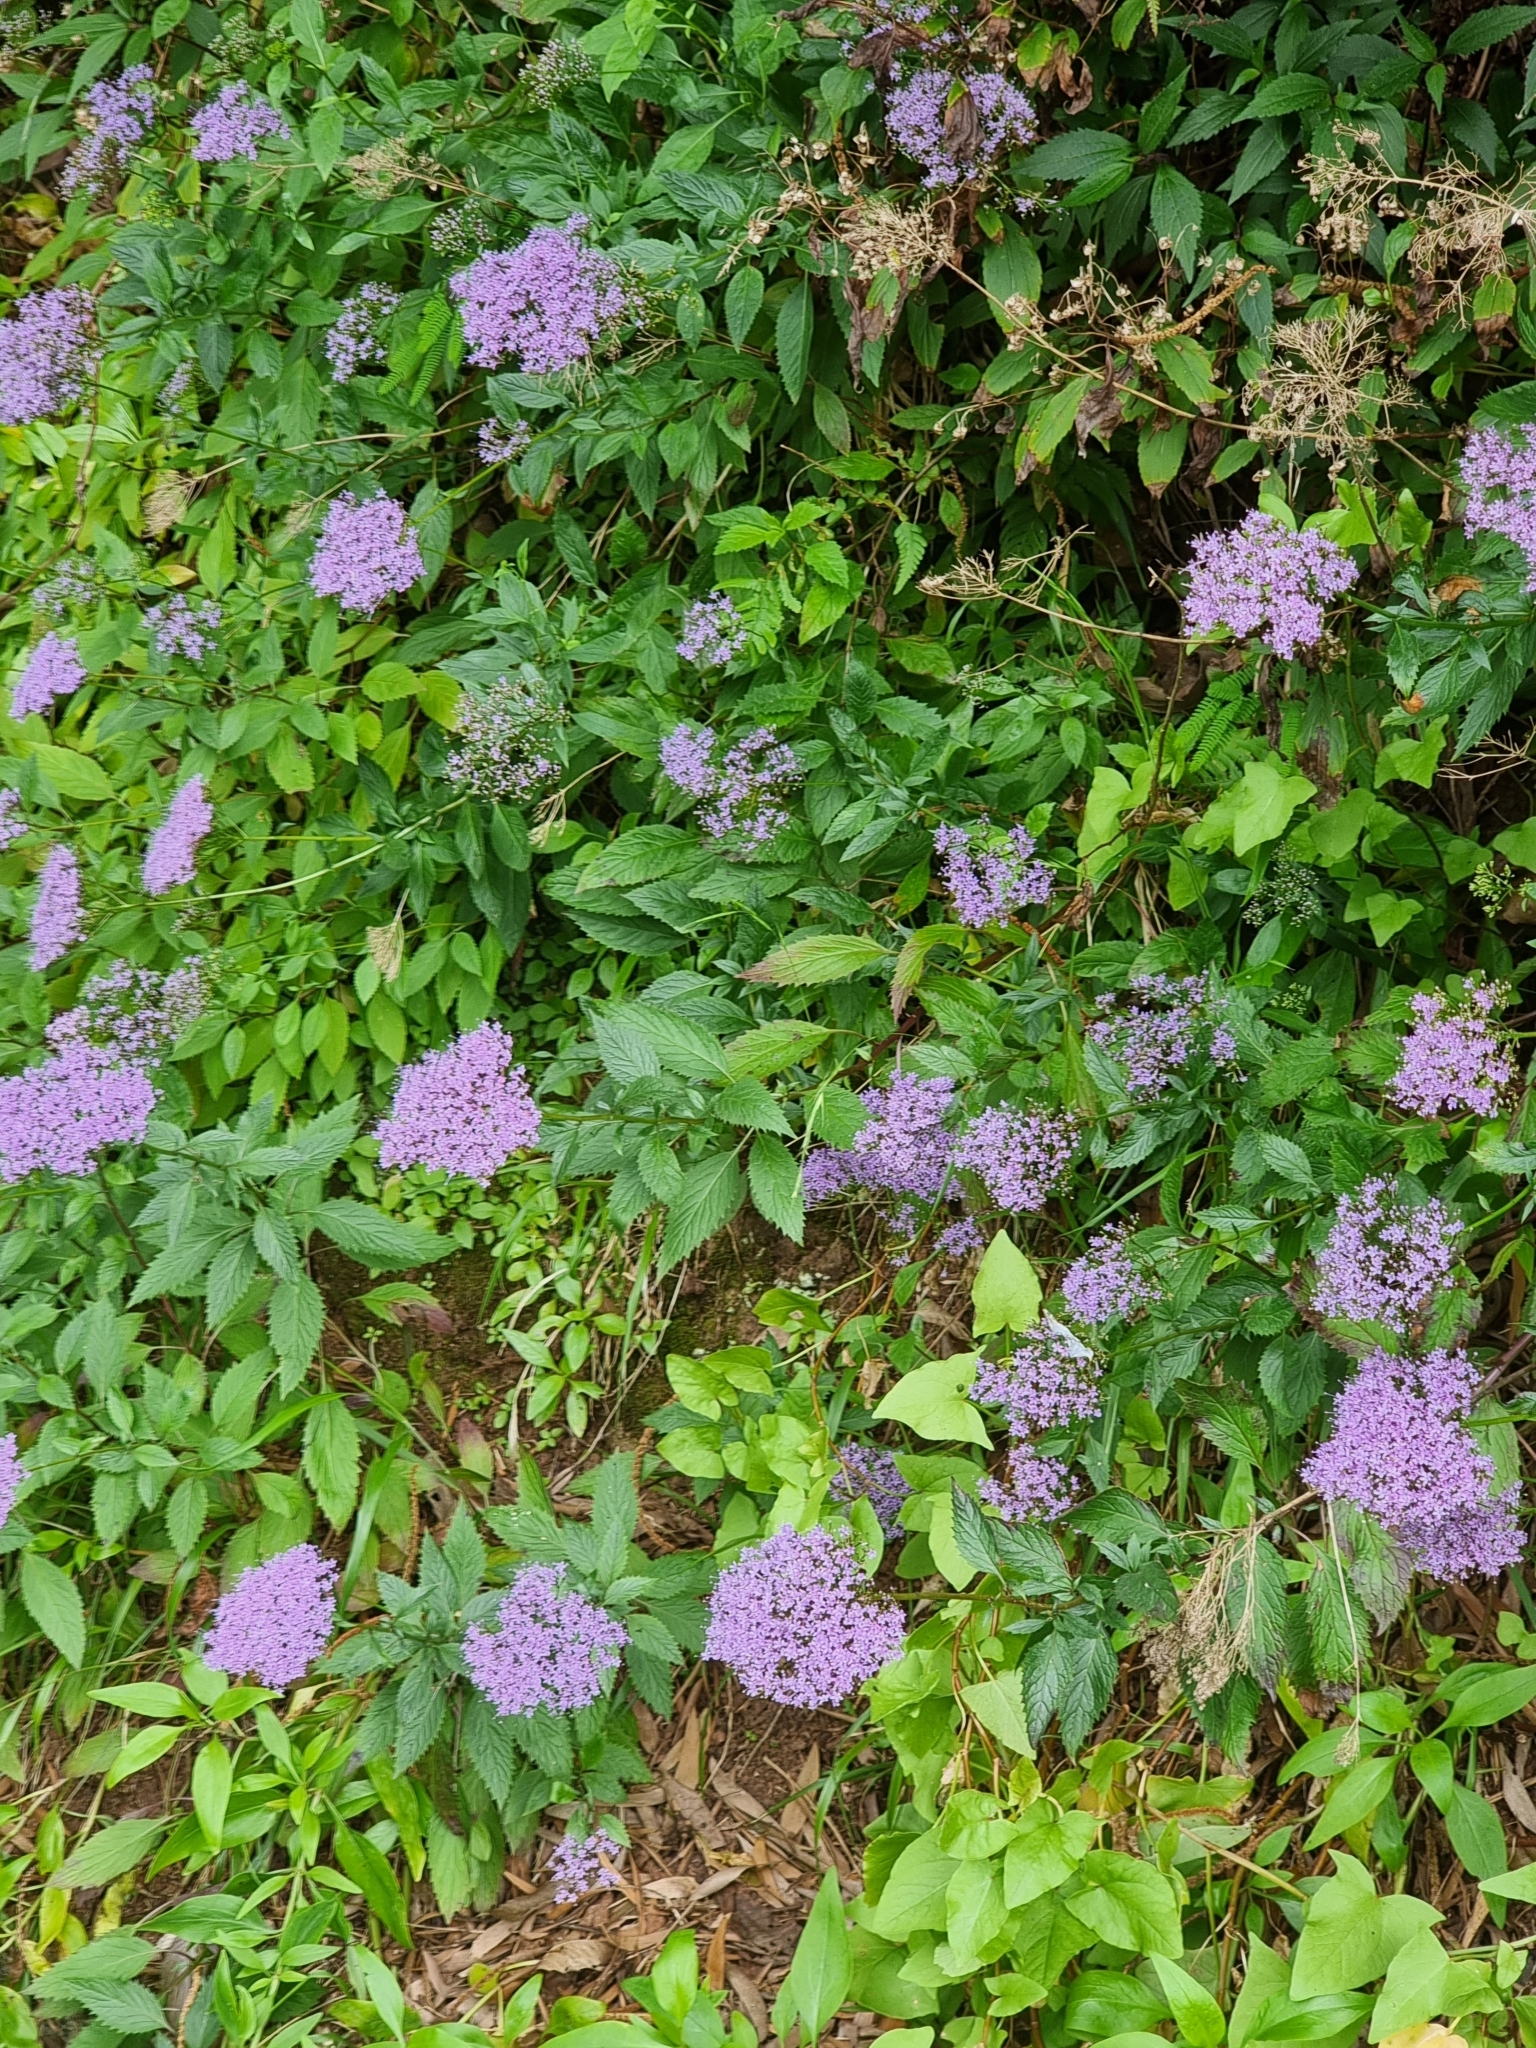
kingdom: Plantae
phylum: Tracheophyta
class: Magnoliopsida
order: Asterales
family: Campanulaceae
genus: Trachelium
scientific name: Trachelium caeruleum
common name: Throatwort
